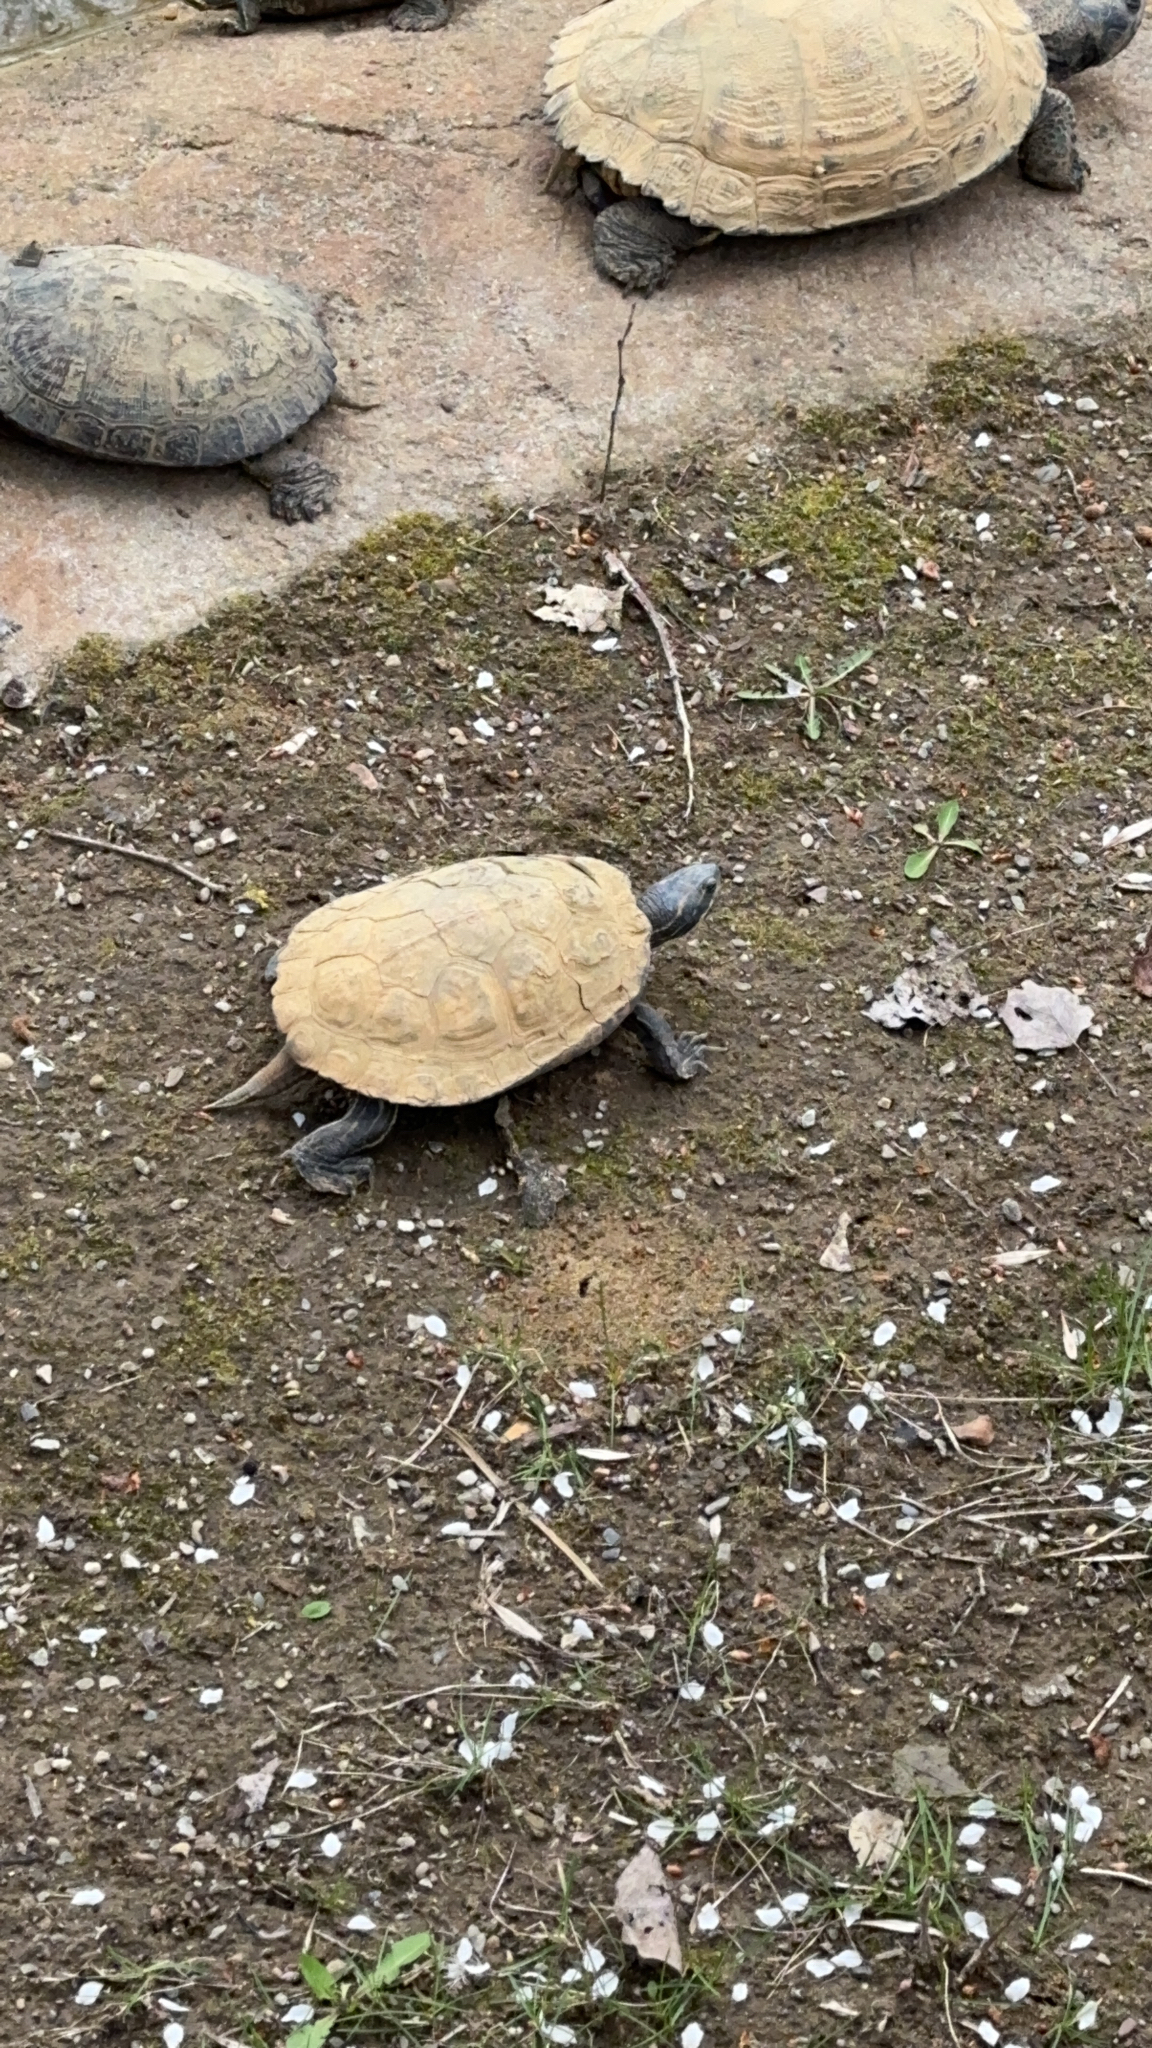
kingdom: Animalia
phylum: Chordata
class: Testudines
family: Emydidae
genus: Trachemys
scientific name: Trachemys scripta
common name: Slider
